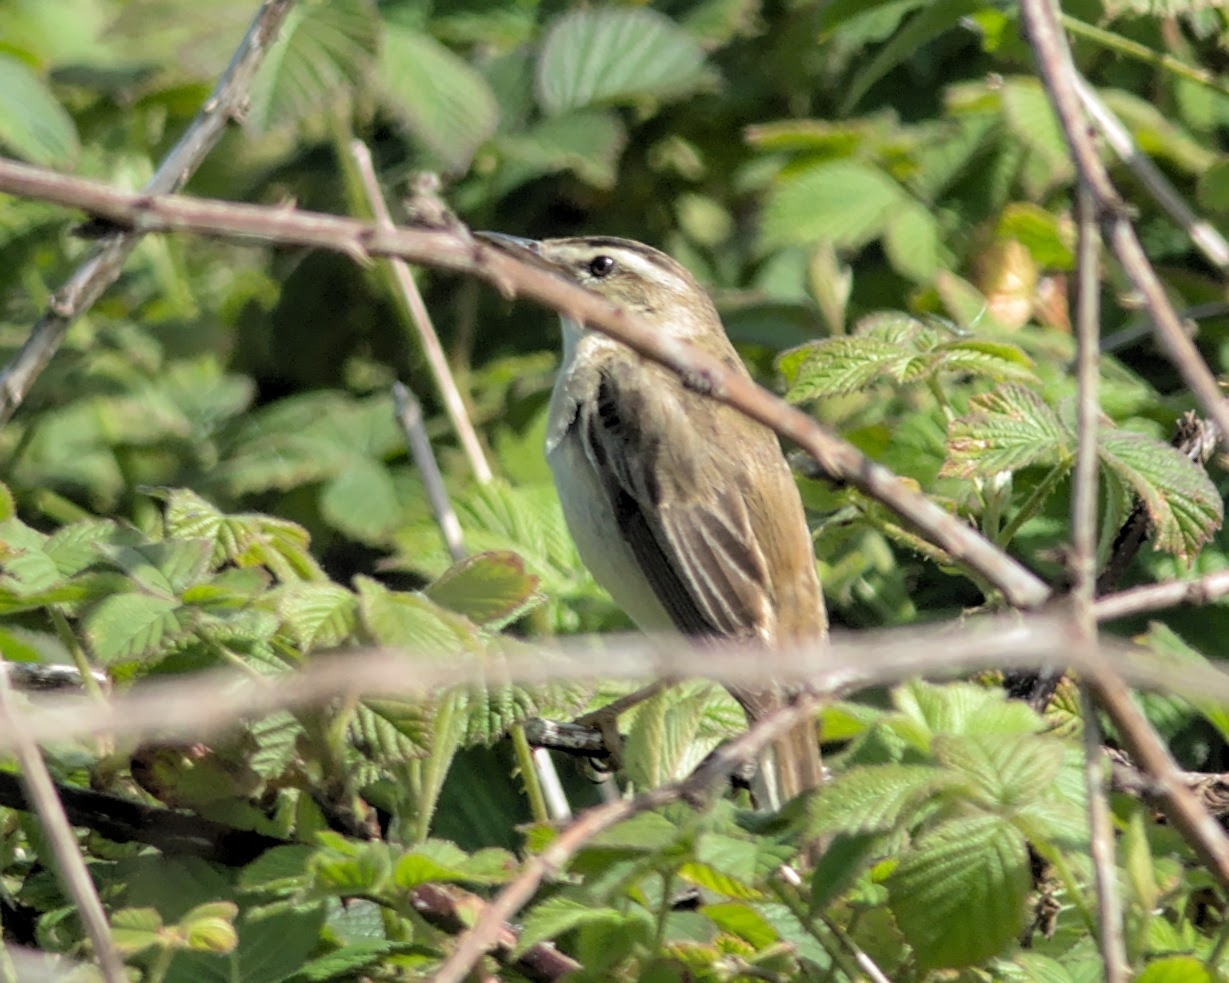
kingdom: Animalia
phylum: Chordata
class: Aves
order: Passeriformes
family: Acrocephalidae
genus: Acrocephalus
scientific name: Acrocephalus schoenobaenus
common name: Sedge warbler
